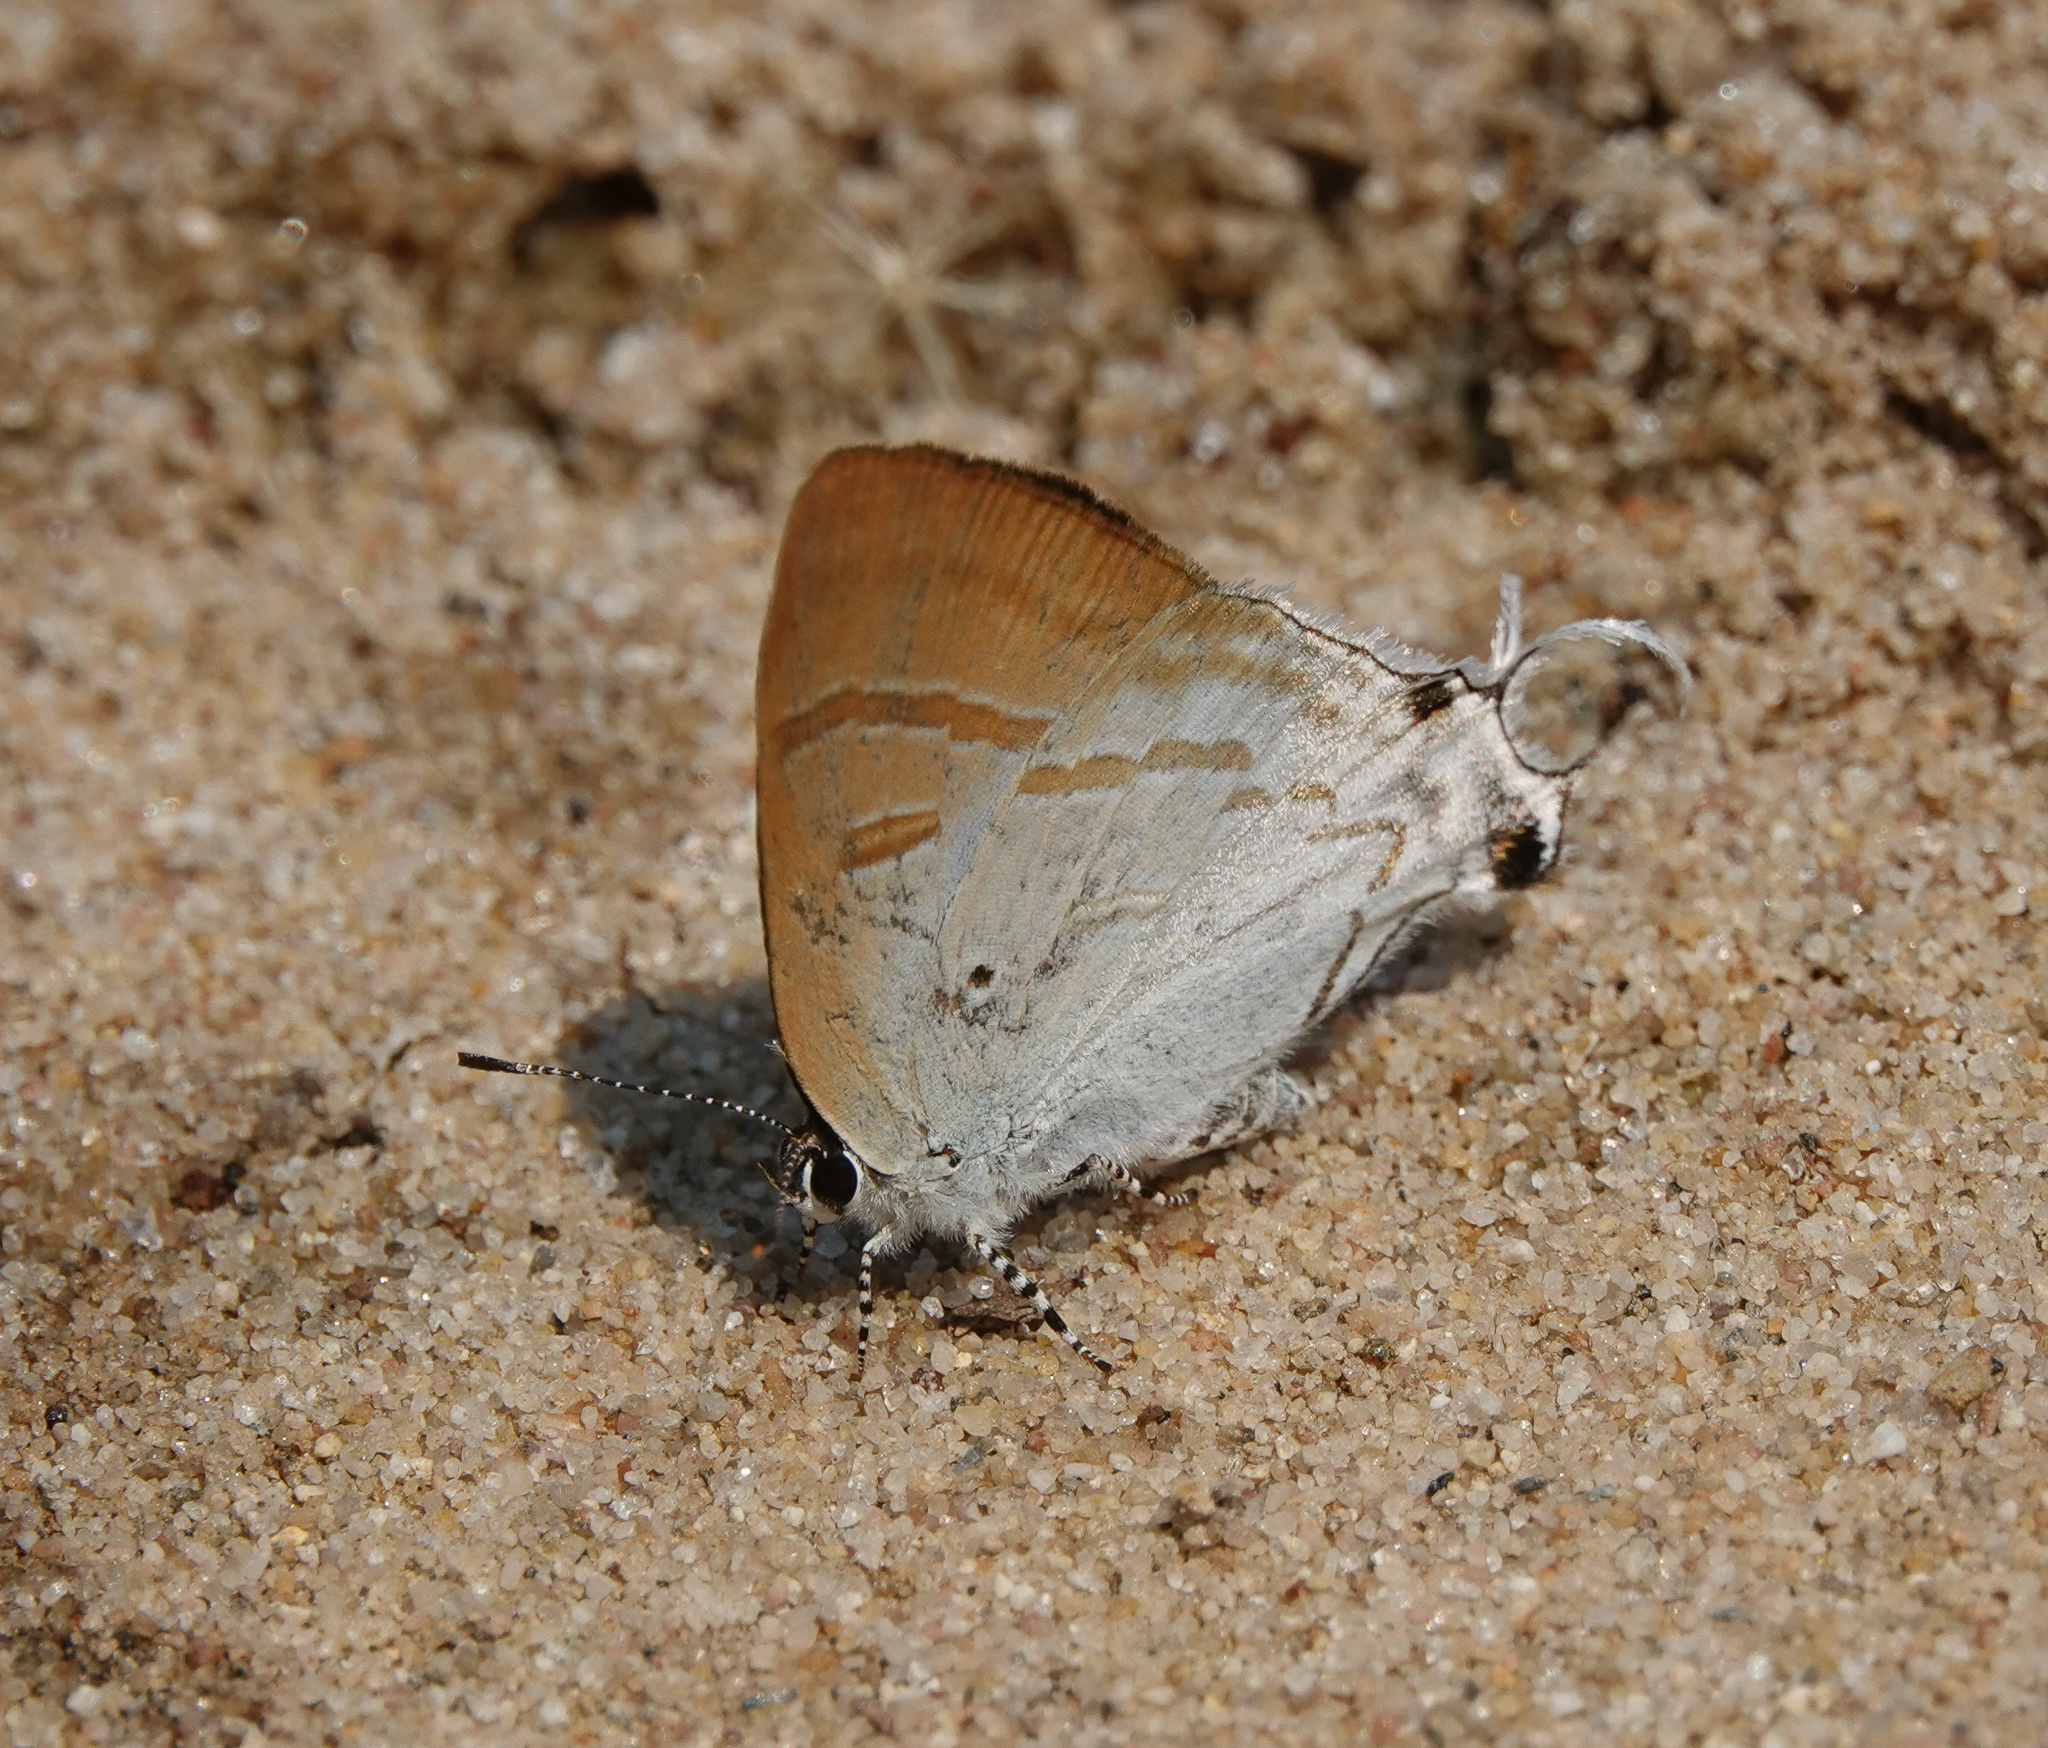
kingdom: Animalia
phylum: Arthropoda
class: Insecta
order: Lepidoptera
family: Lycaenidae
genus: Zeltus
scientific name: Zeltus amasa
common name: Fluffy tit
